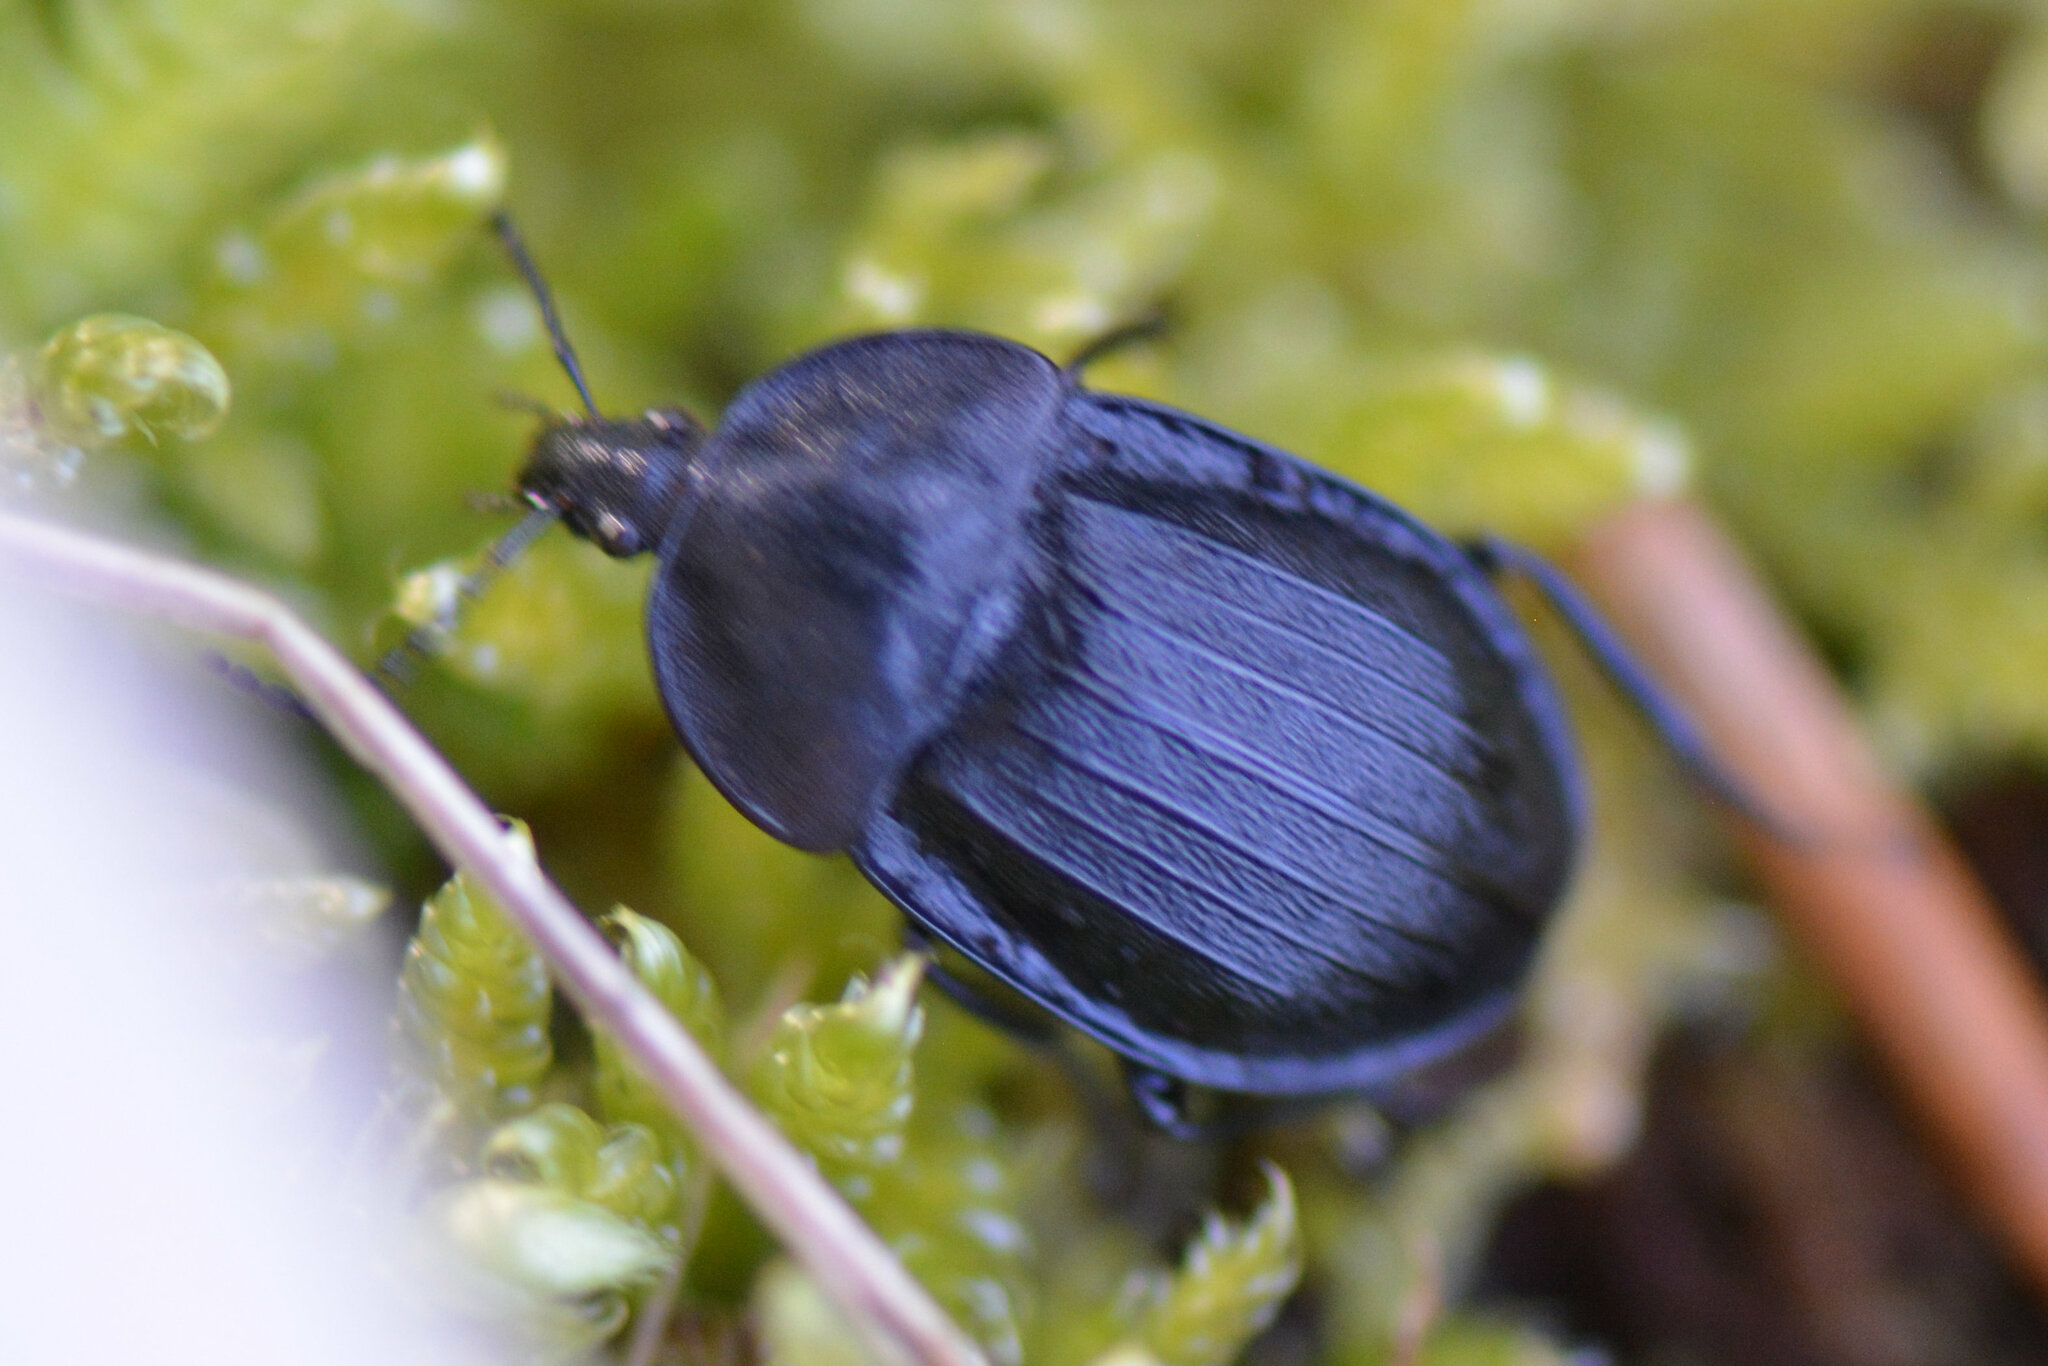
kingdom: Animalia
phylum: Arthropoda
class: Insecta
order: Coleoptera
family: Staphylinidae
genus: Silpha
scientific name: Silpha atrata
